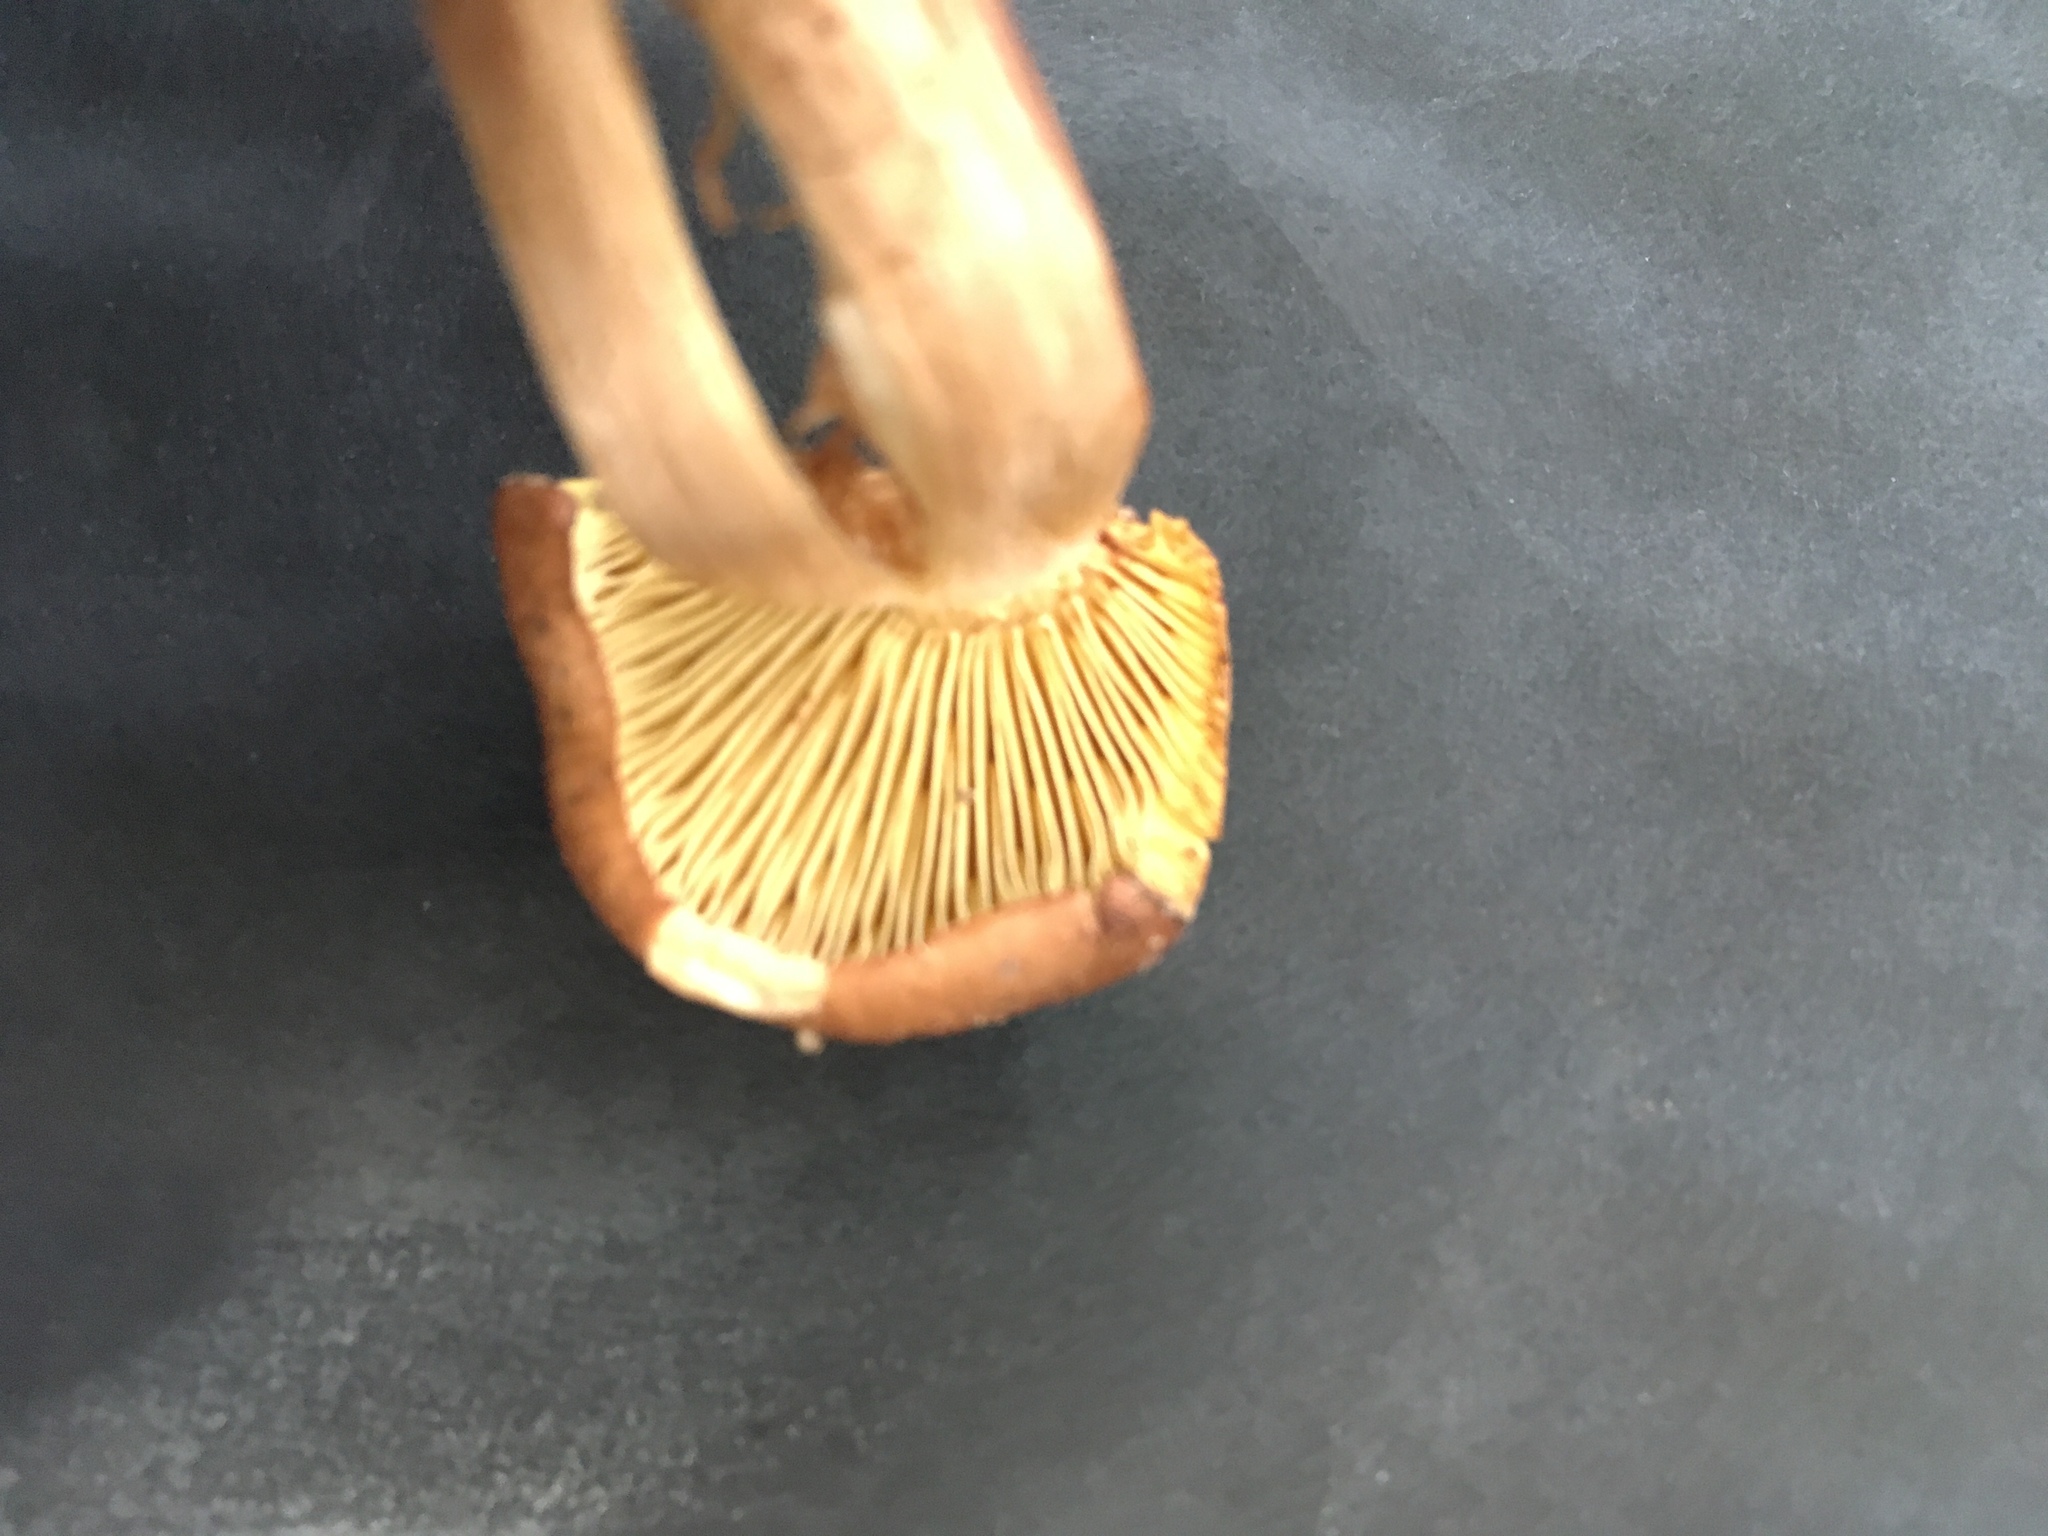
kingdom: Fungi
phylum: Basidiomycota
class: Agaricomycetes
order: Agaricales
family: Tricholomataceae
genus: Tricholoma
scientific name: Tricholoma fulvum
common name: Birch knight
